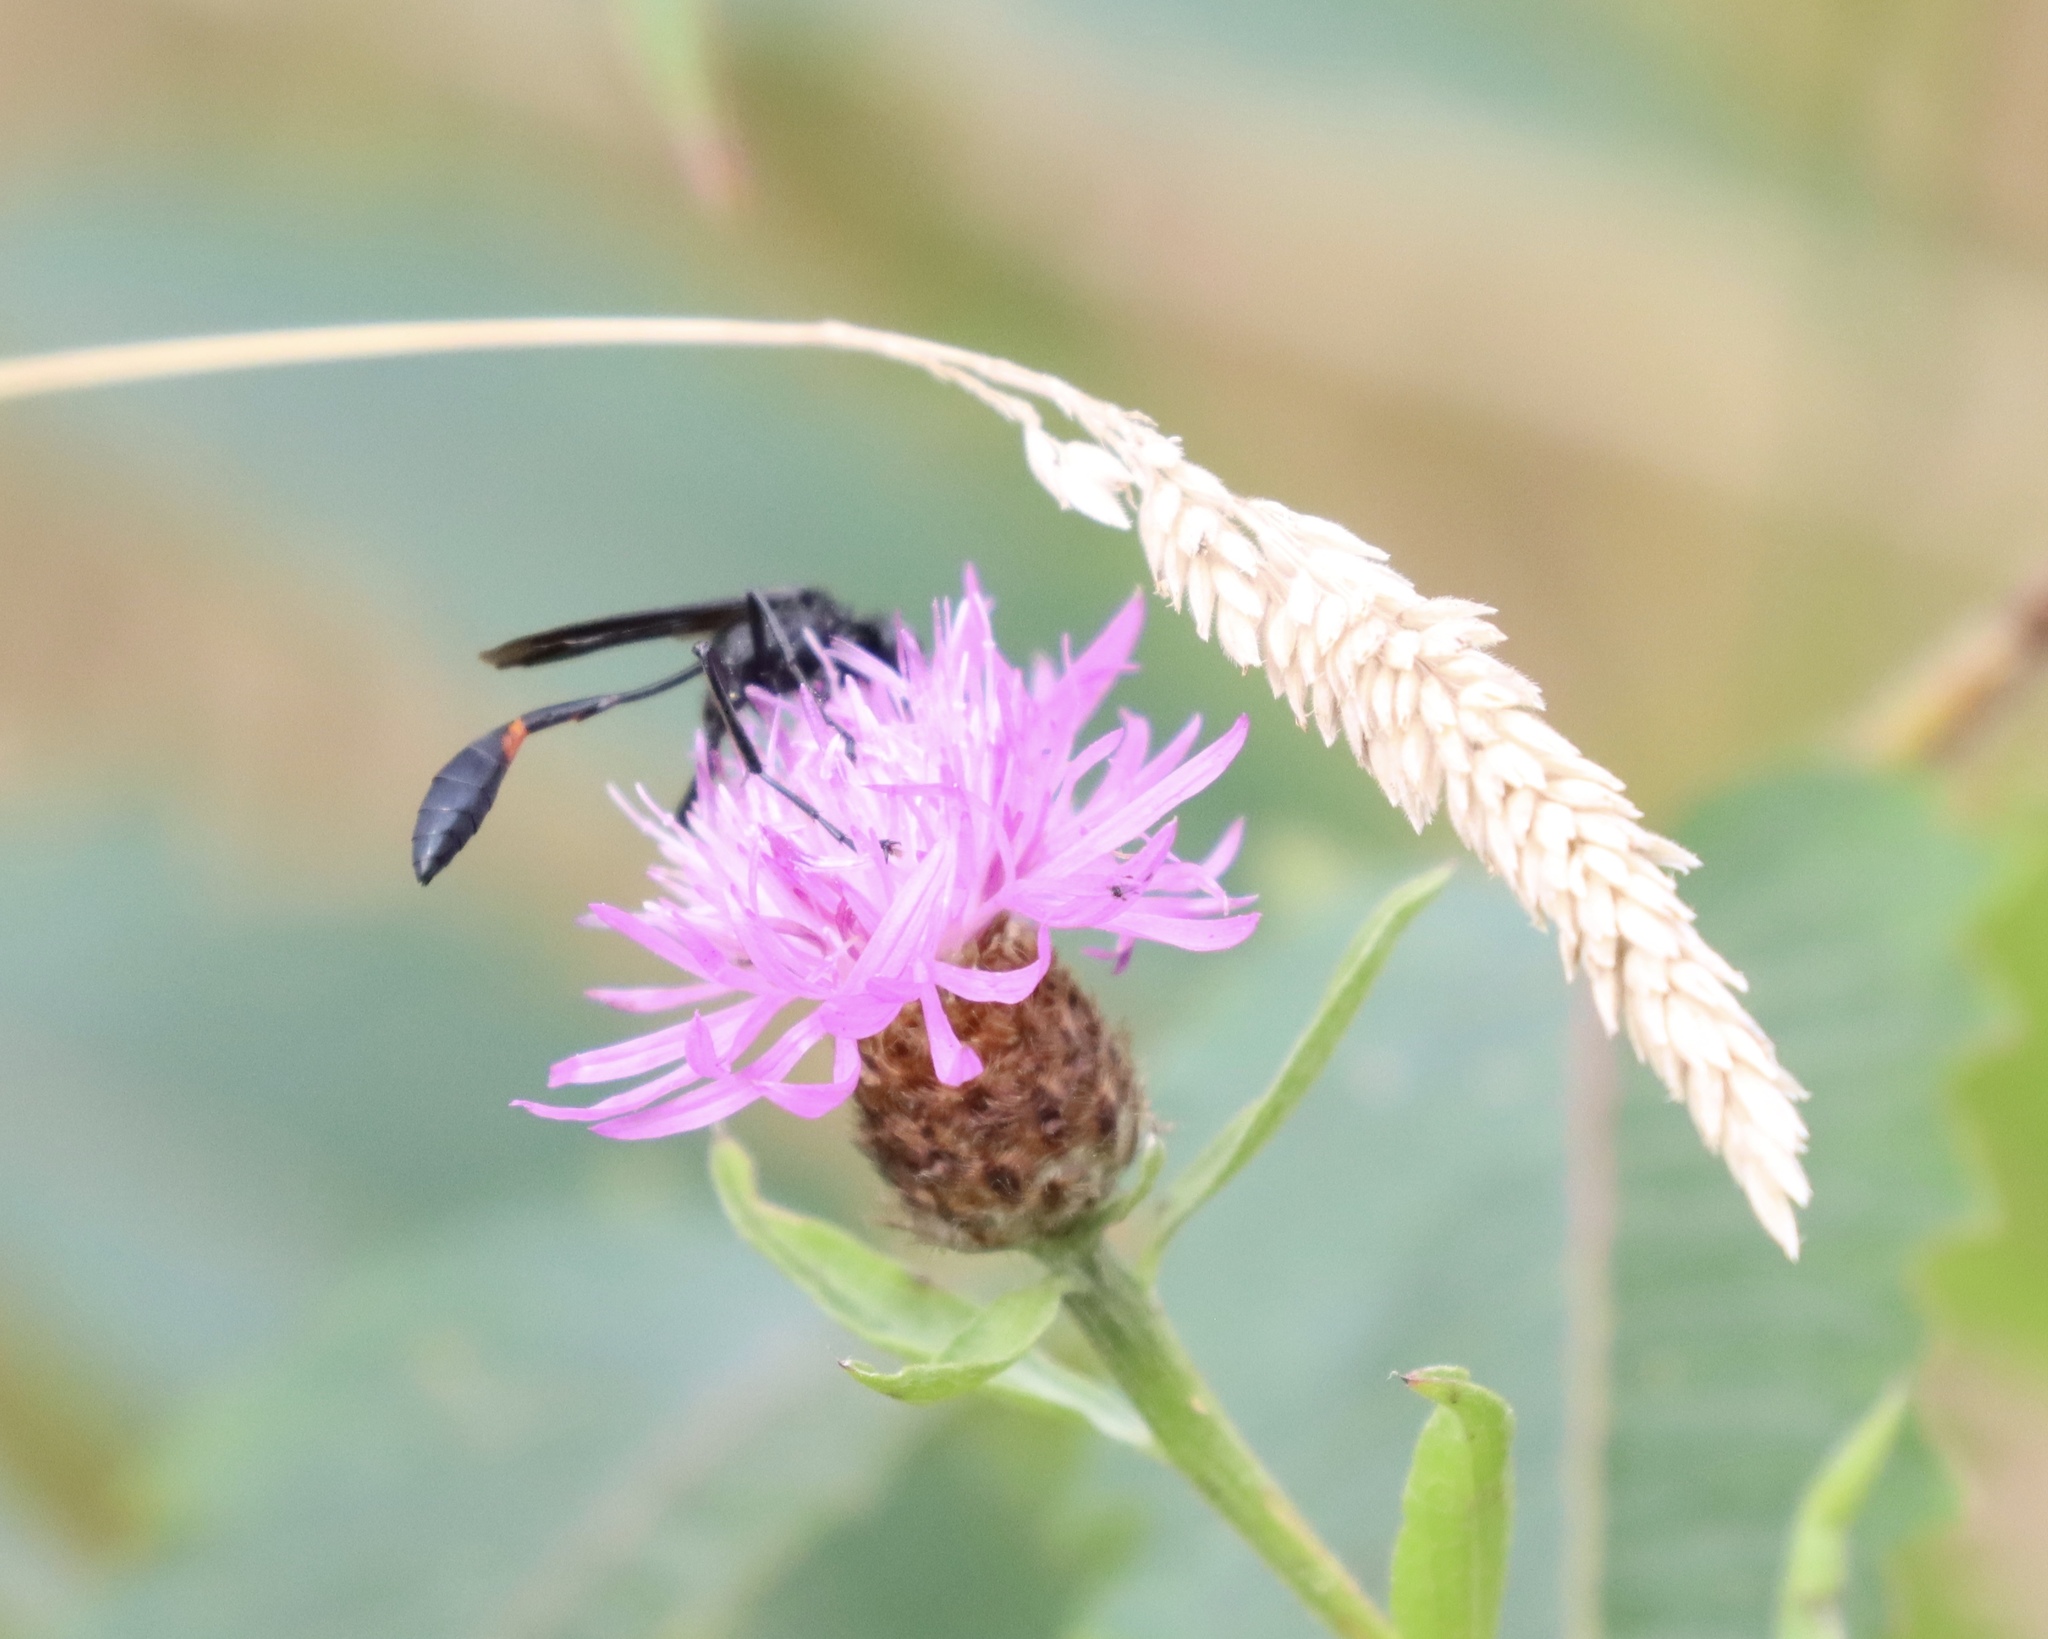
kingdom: Animalia
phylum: Arthropoda
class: Insecta
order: Hymenoptera
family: Sphecidae
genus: Ammophila
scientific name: Ammophila nigricans
